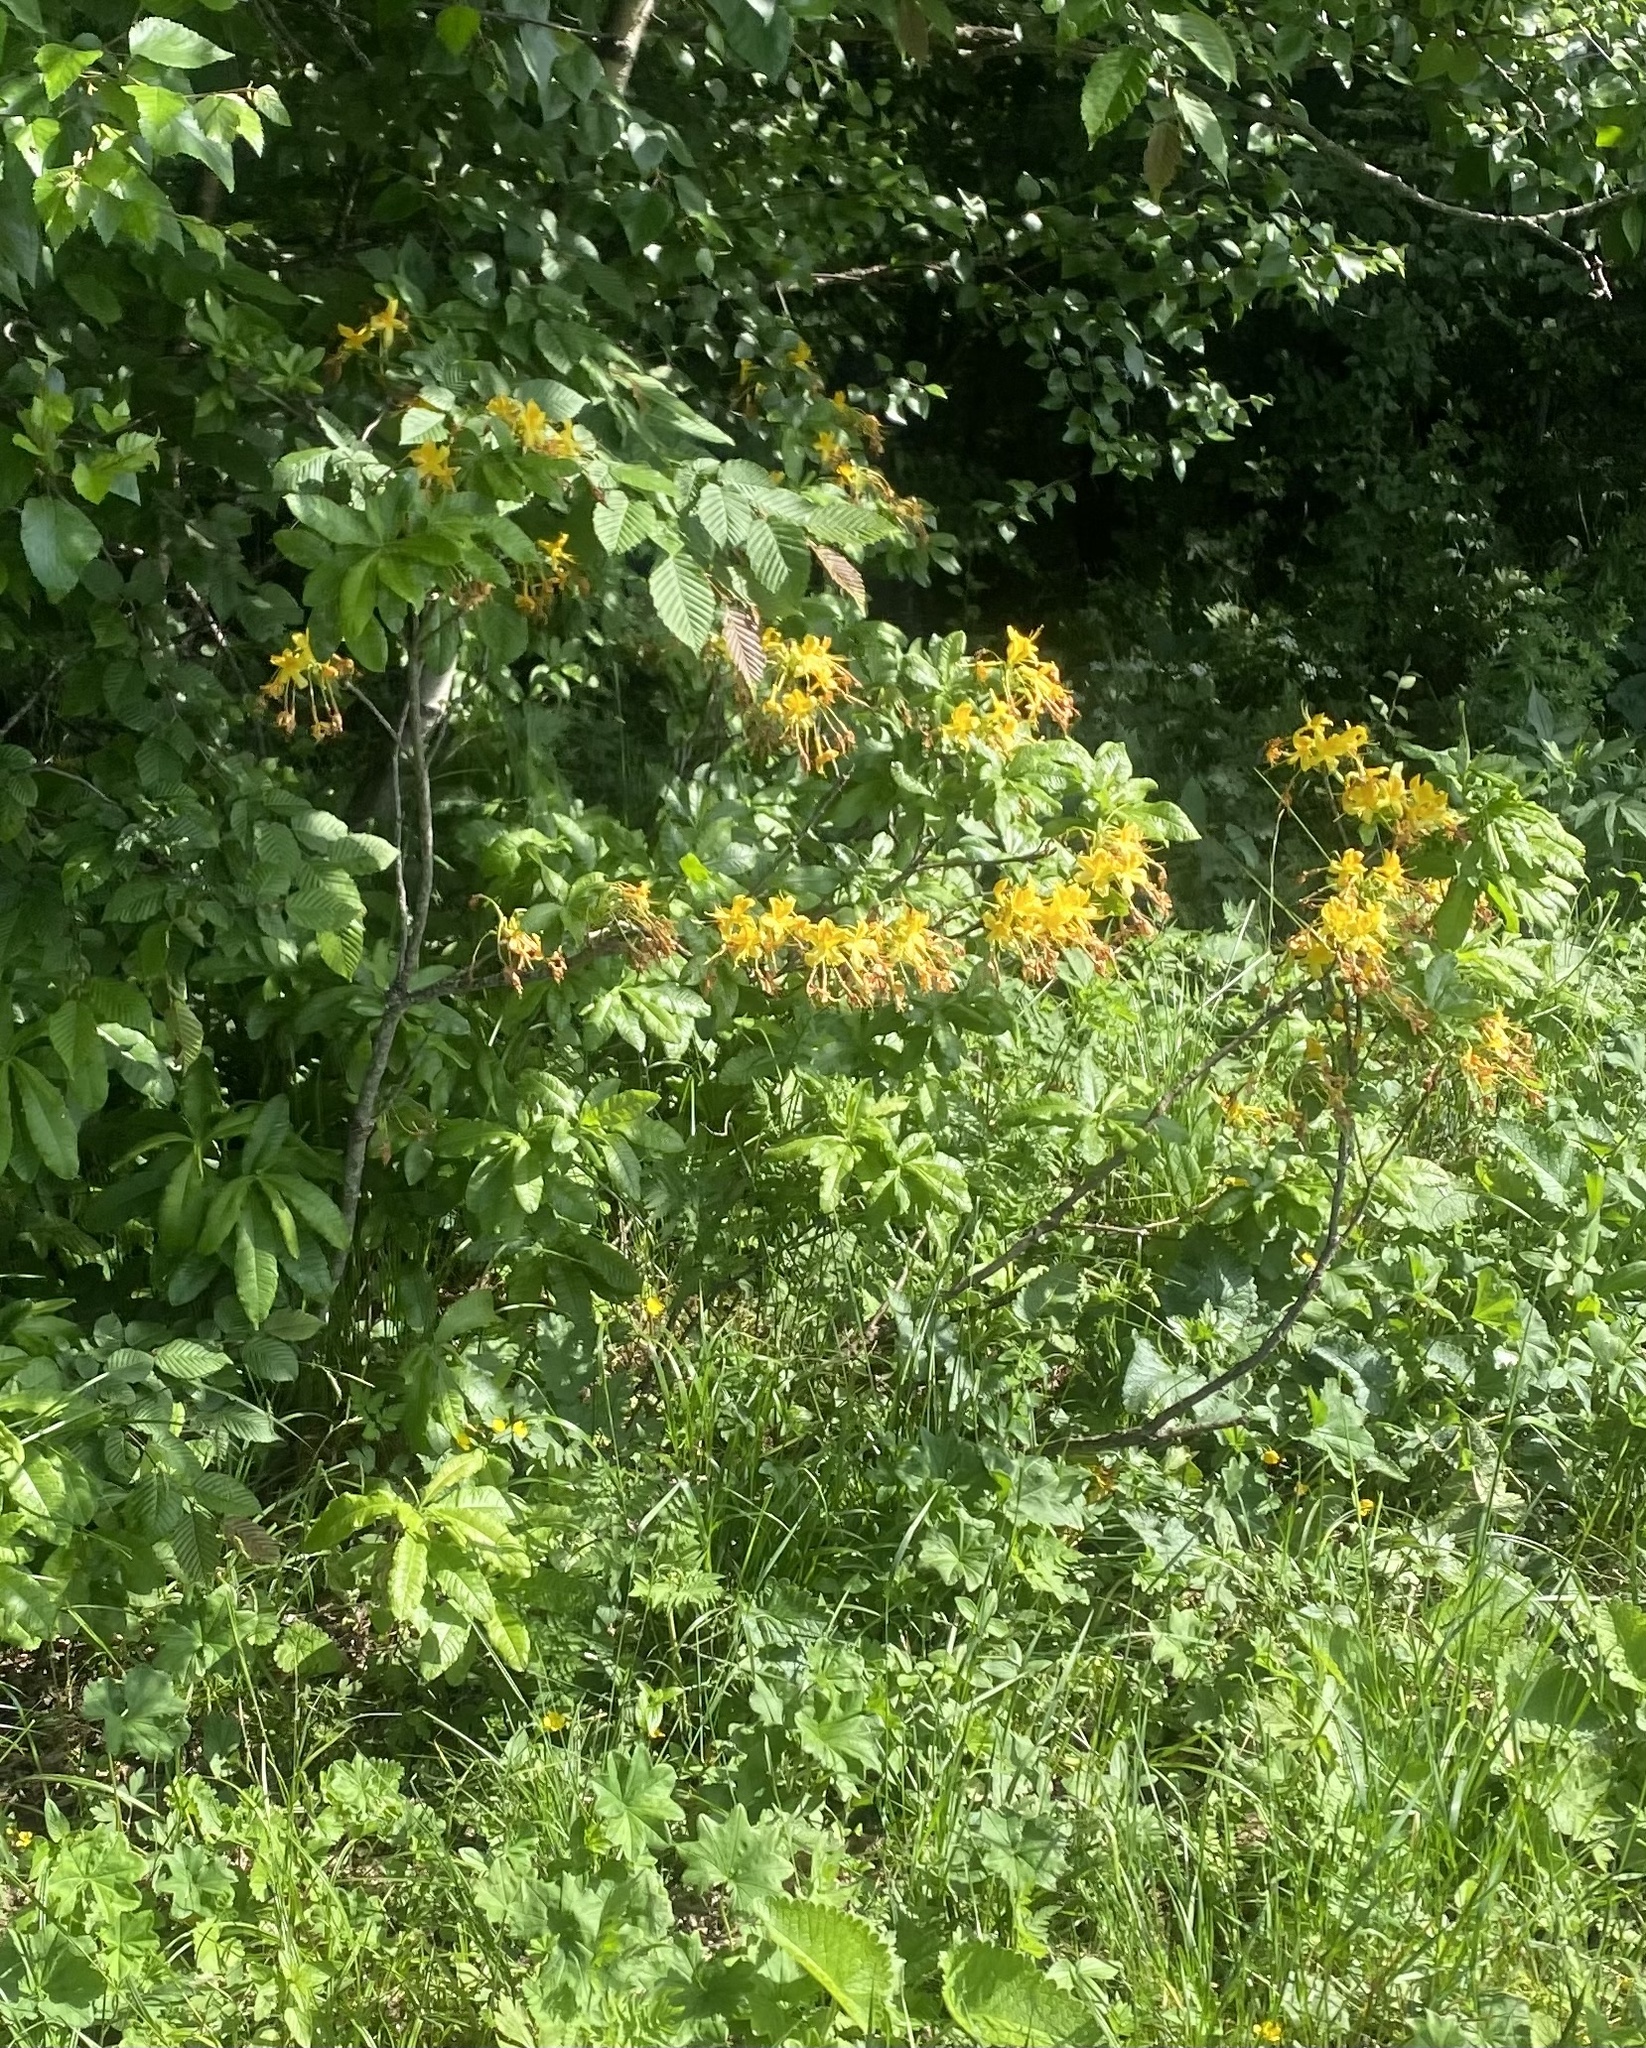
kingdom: Plantae
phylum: Tracheophyta
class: Magnoliopsida
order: Ericales
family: Ericaceae
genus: Rhododendron
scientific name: Rhododendron luteum
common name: Yellow azalea
